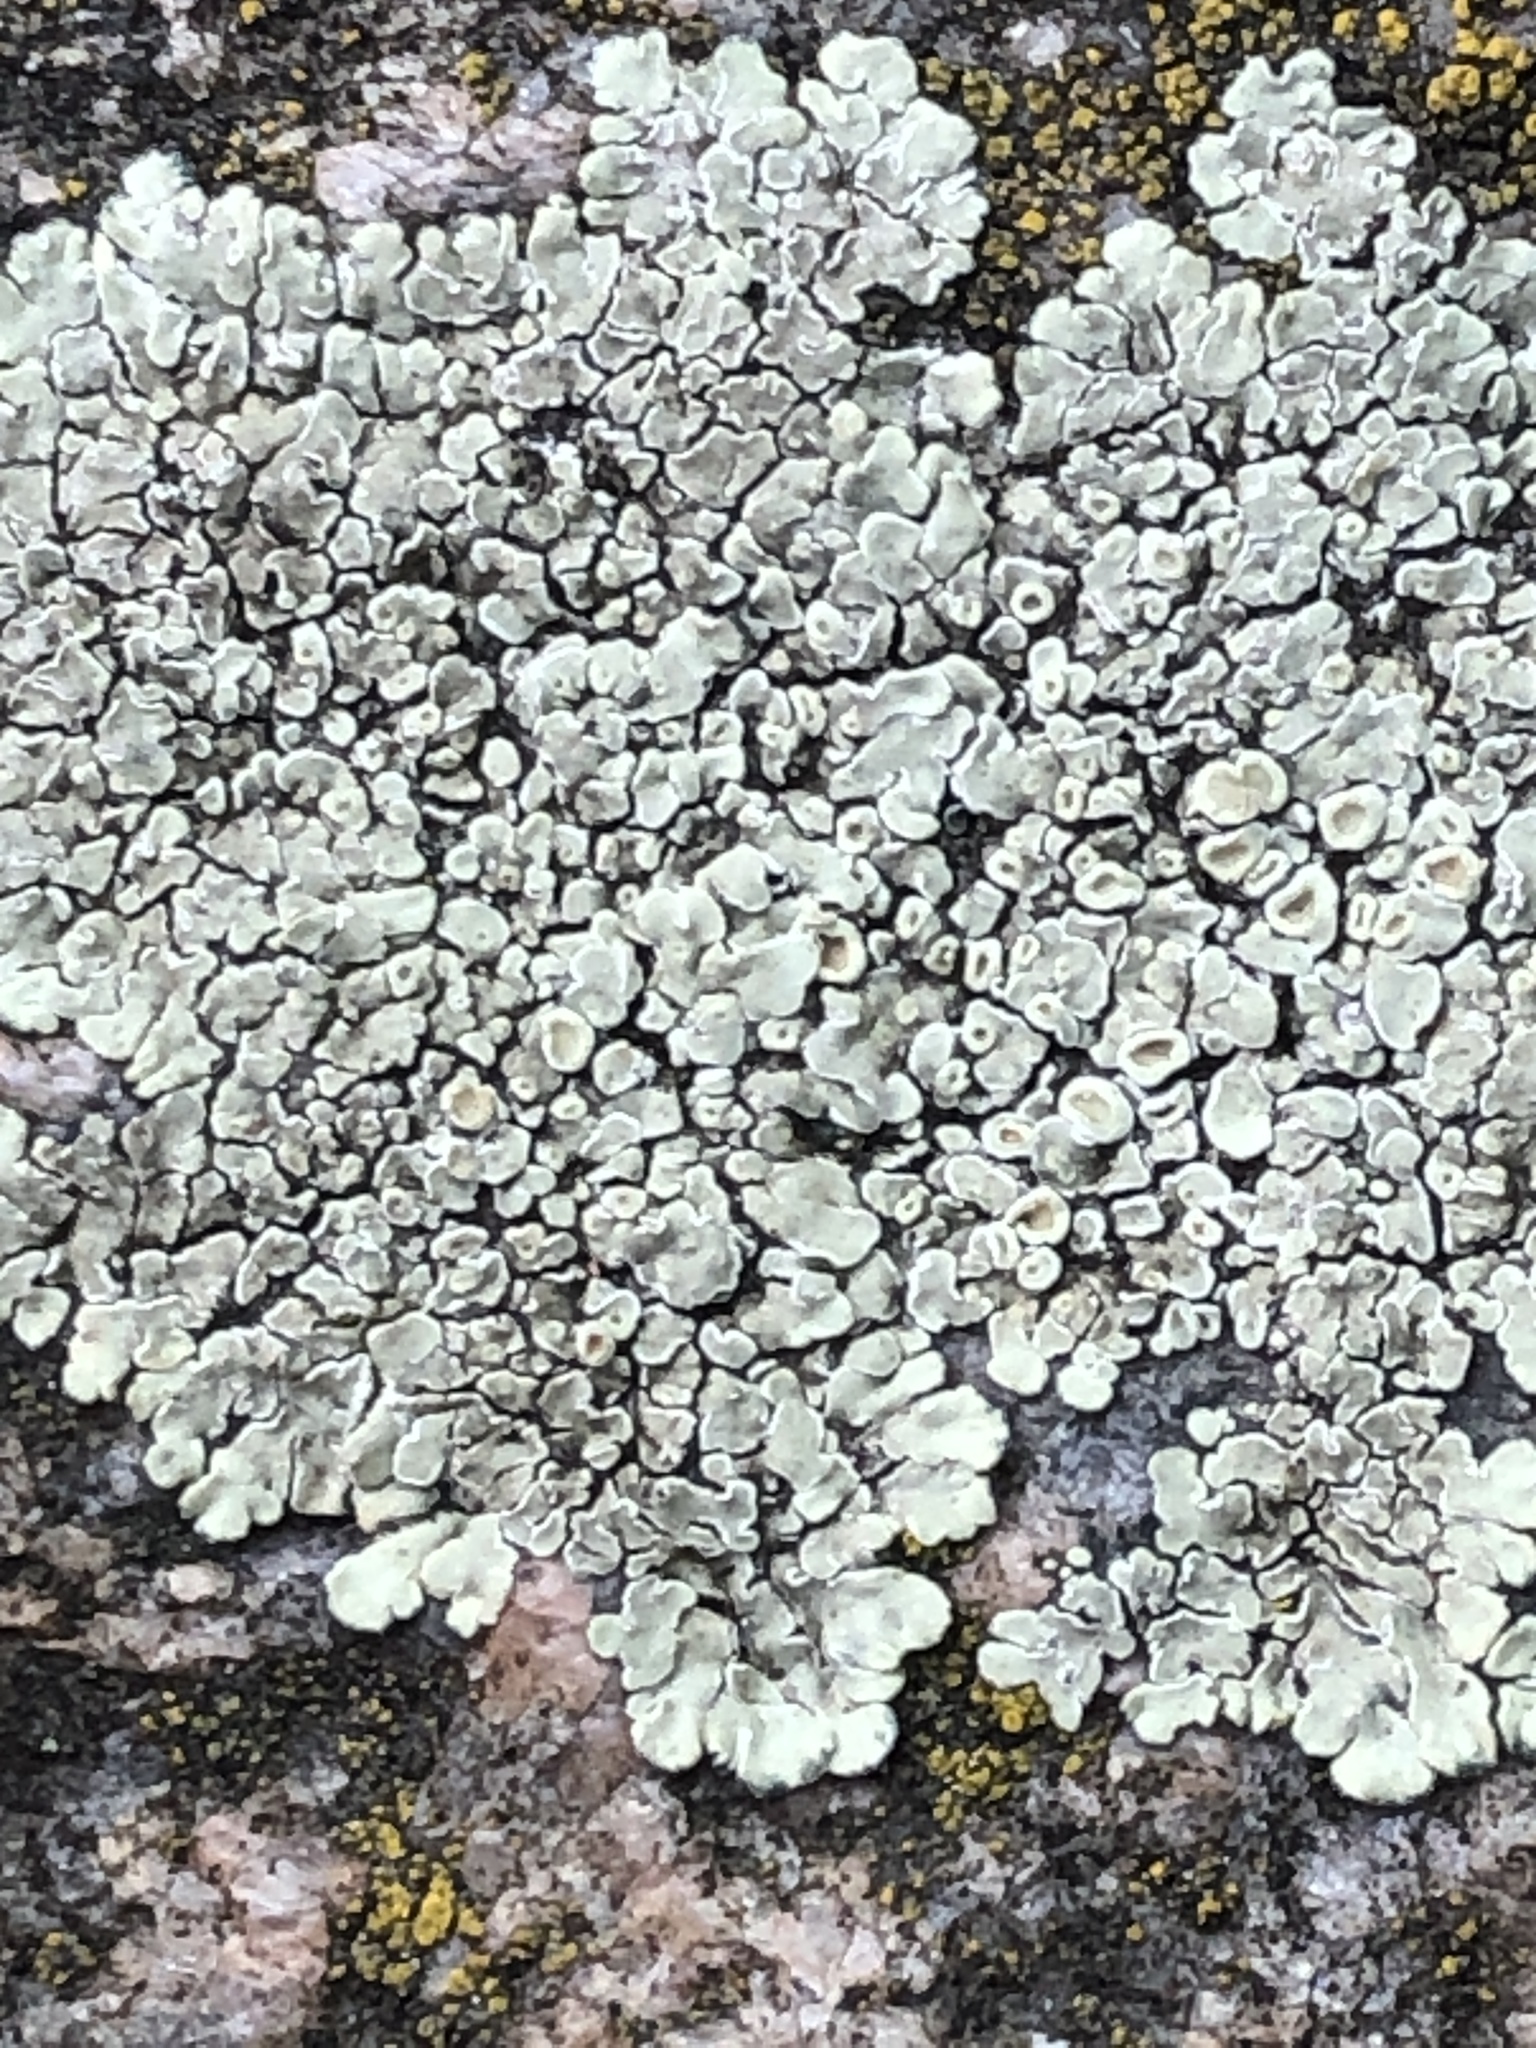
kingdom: Fungi
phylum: Ascomycota
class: Lecanoromycetes
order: Lecanorales
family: Lecanoraceae
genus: Protoparmeliopsis
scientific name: Protoparmeliopsis muralis
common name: Stonewall rim lichen
